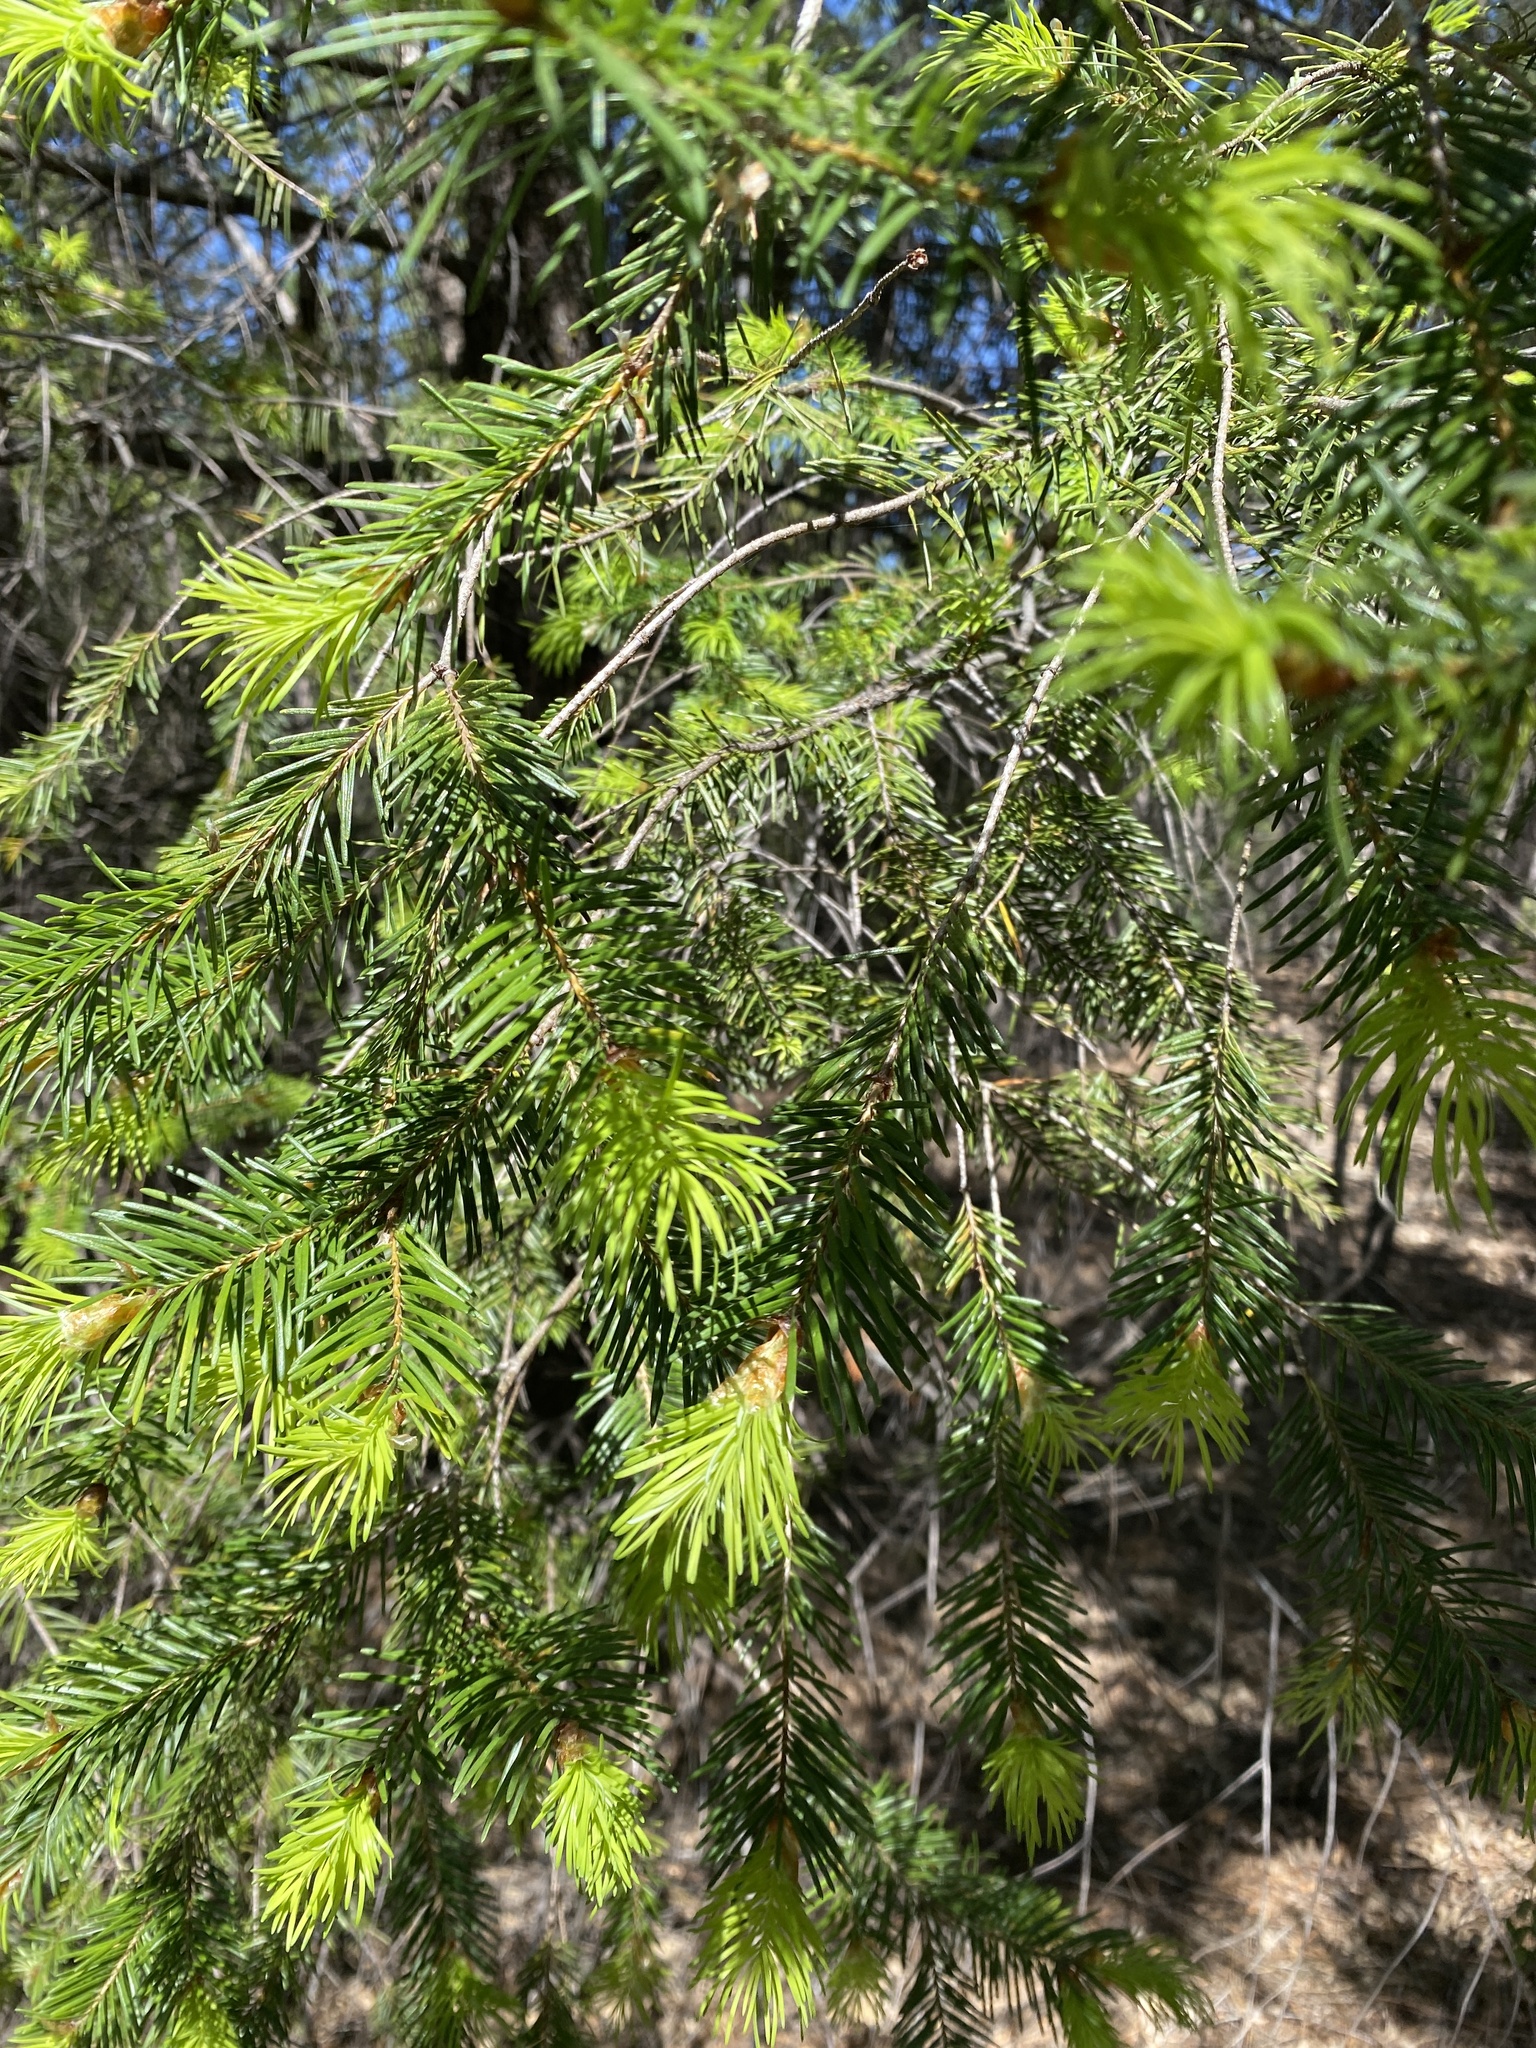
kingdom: Plantae
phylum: Tracheophyta
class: Pinopsida
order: Pinales
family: Pinaceae
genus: Pseudotsuga
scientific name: Pseudotsuga menziesii
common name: Douglas fir
